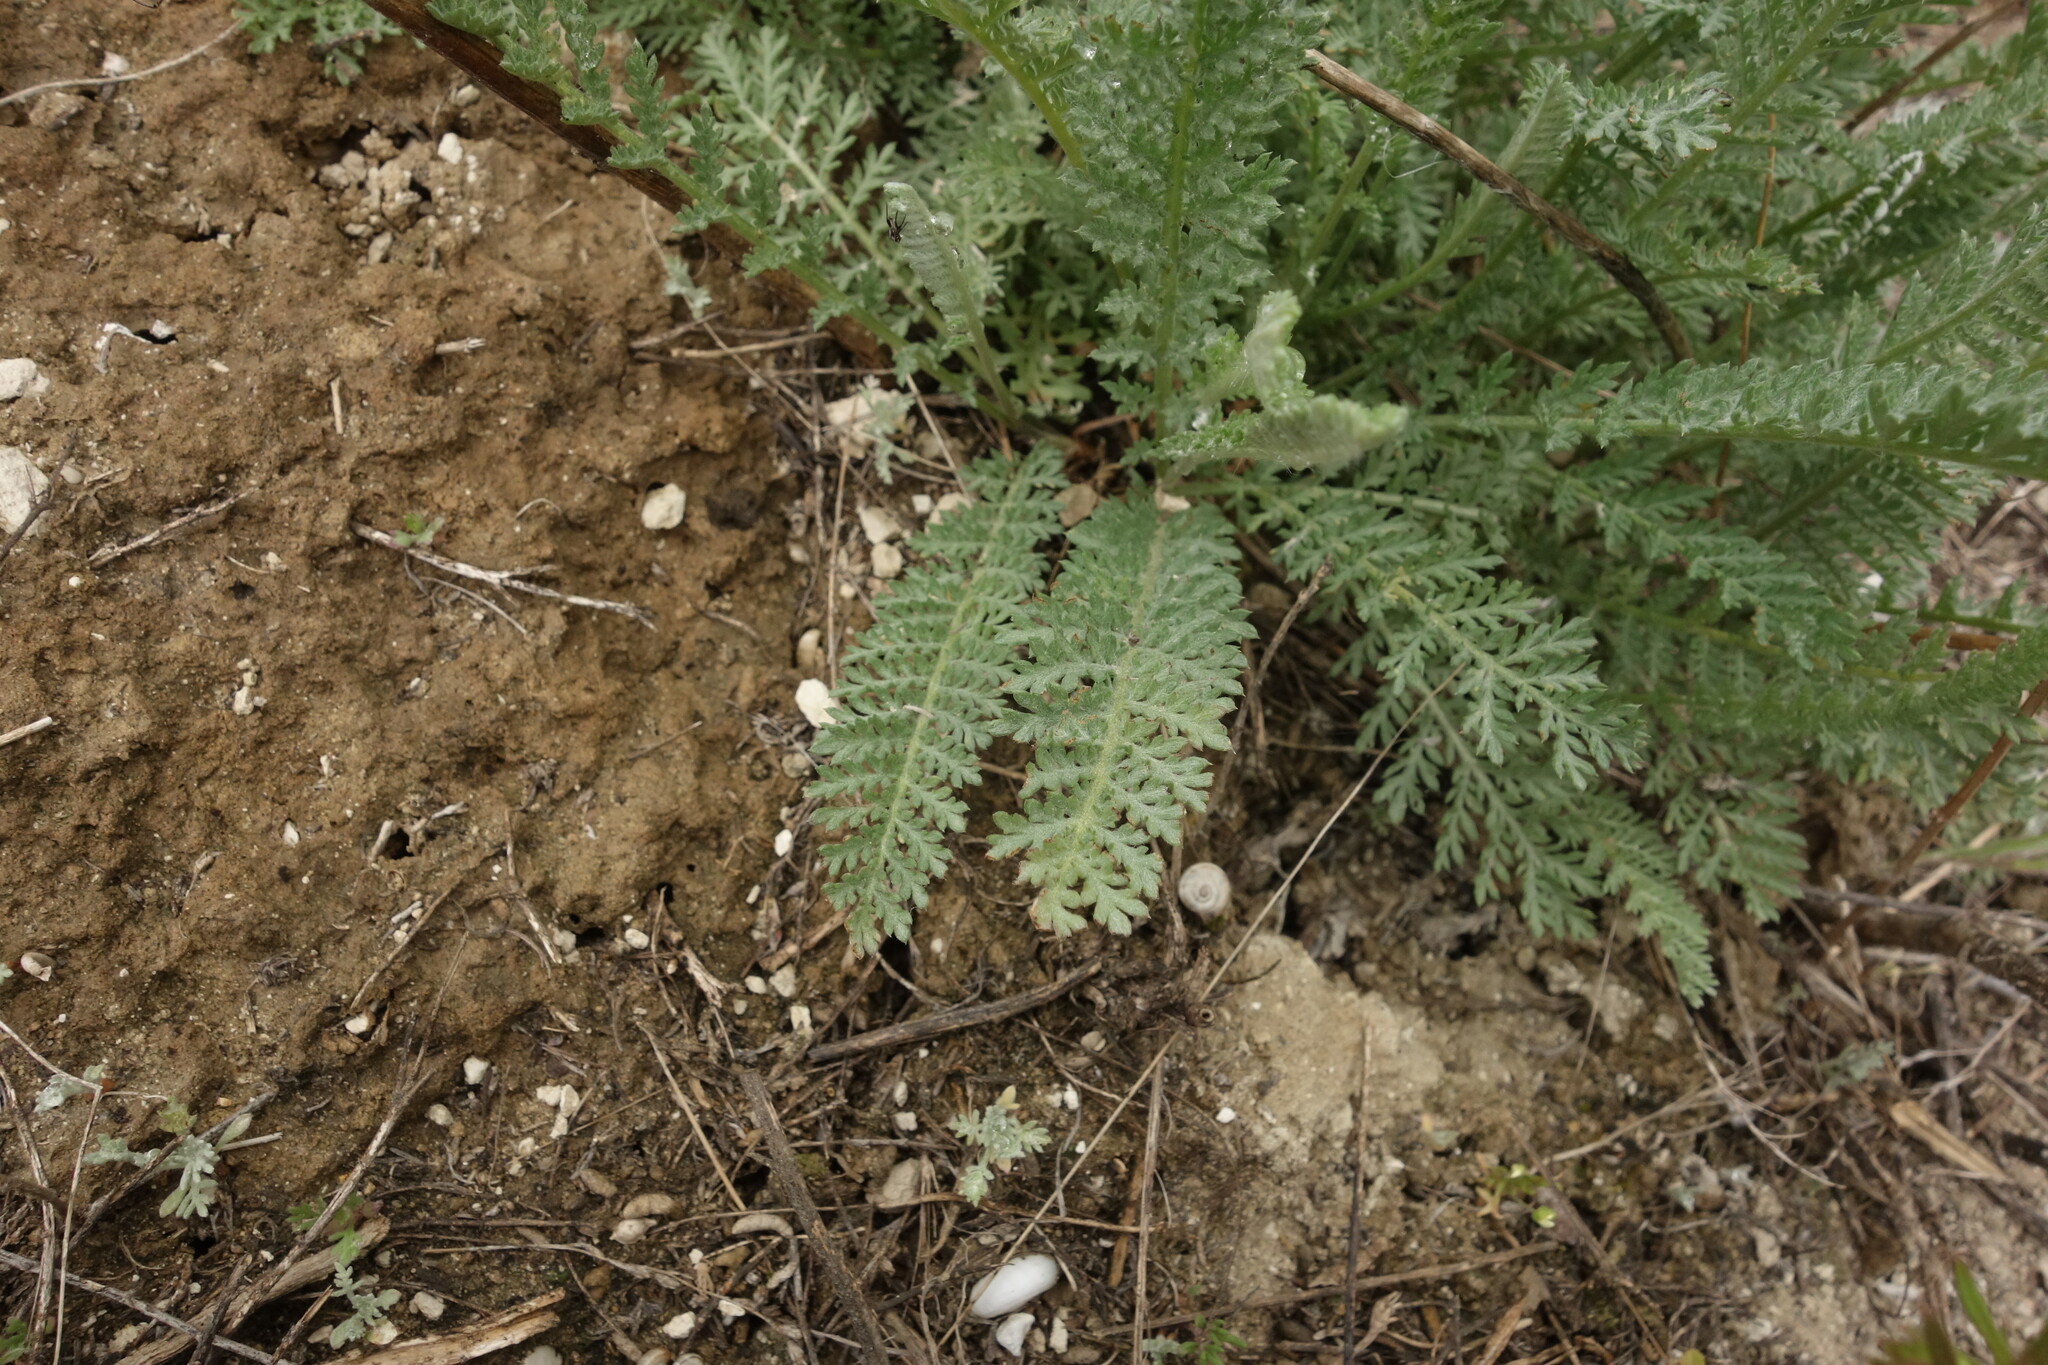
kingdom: Plantae
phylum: Tracheophyta
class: Magnoliopsida
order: Asterales
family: Asteraceae
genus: Tanacetum
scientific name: Tanacetum achilleifolium
